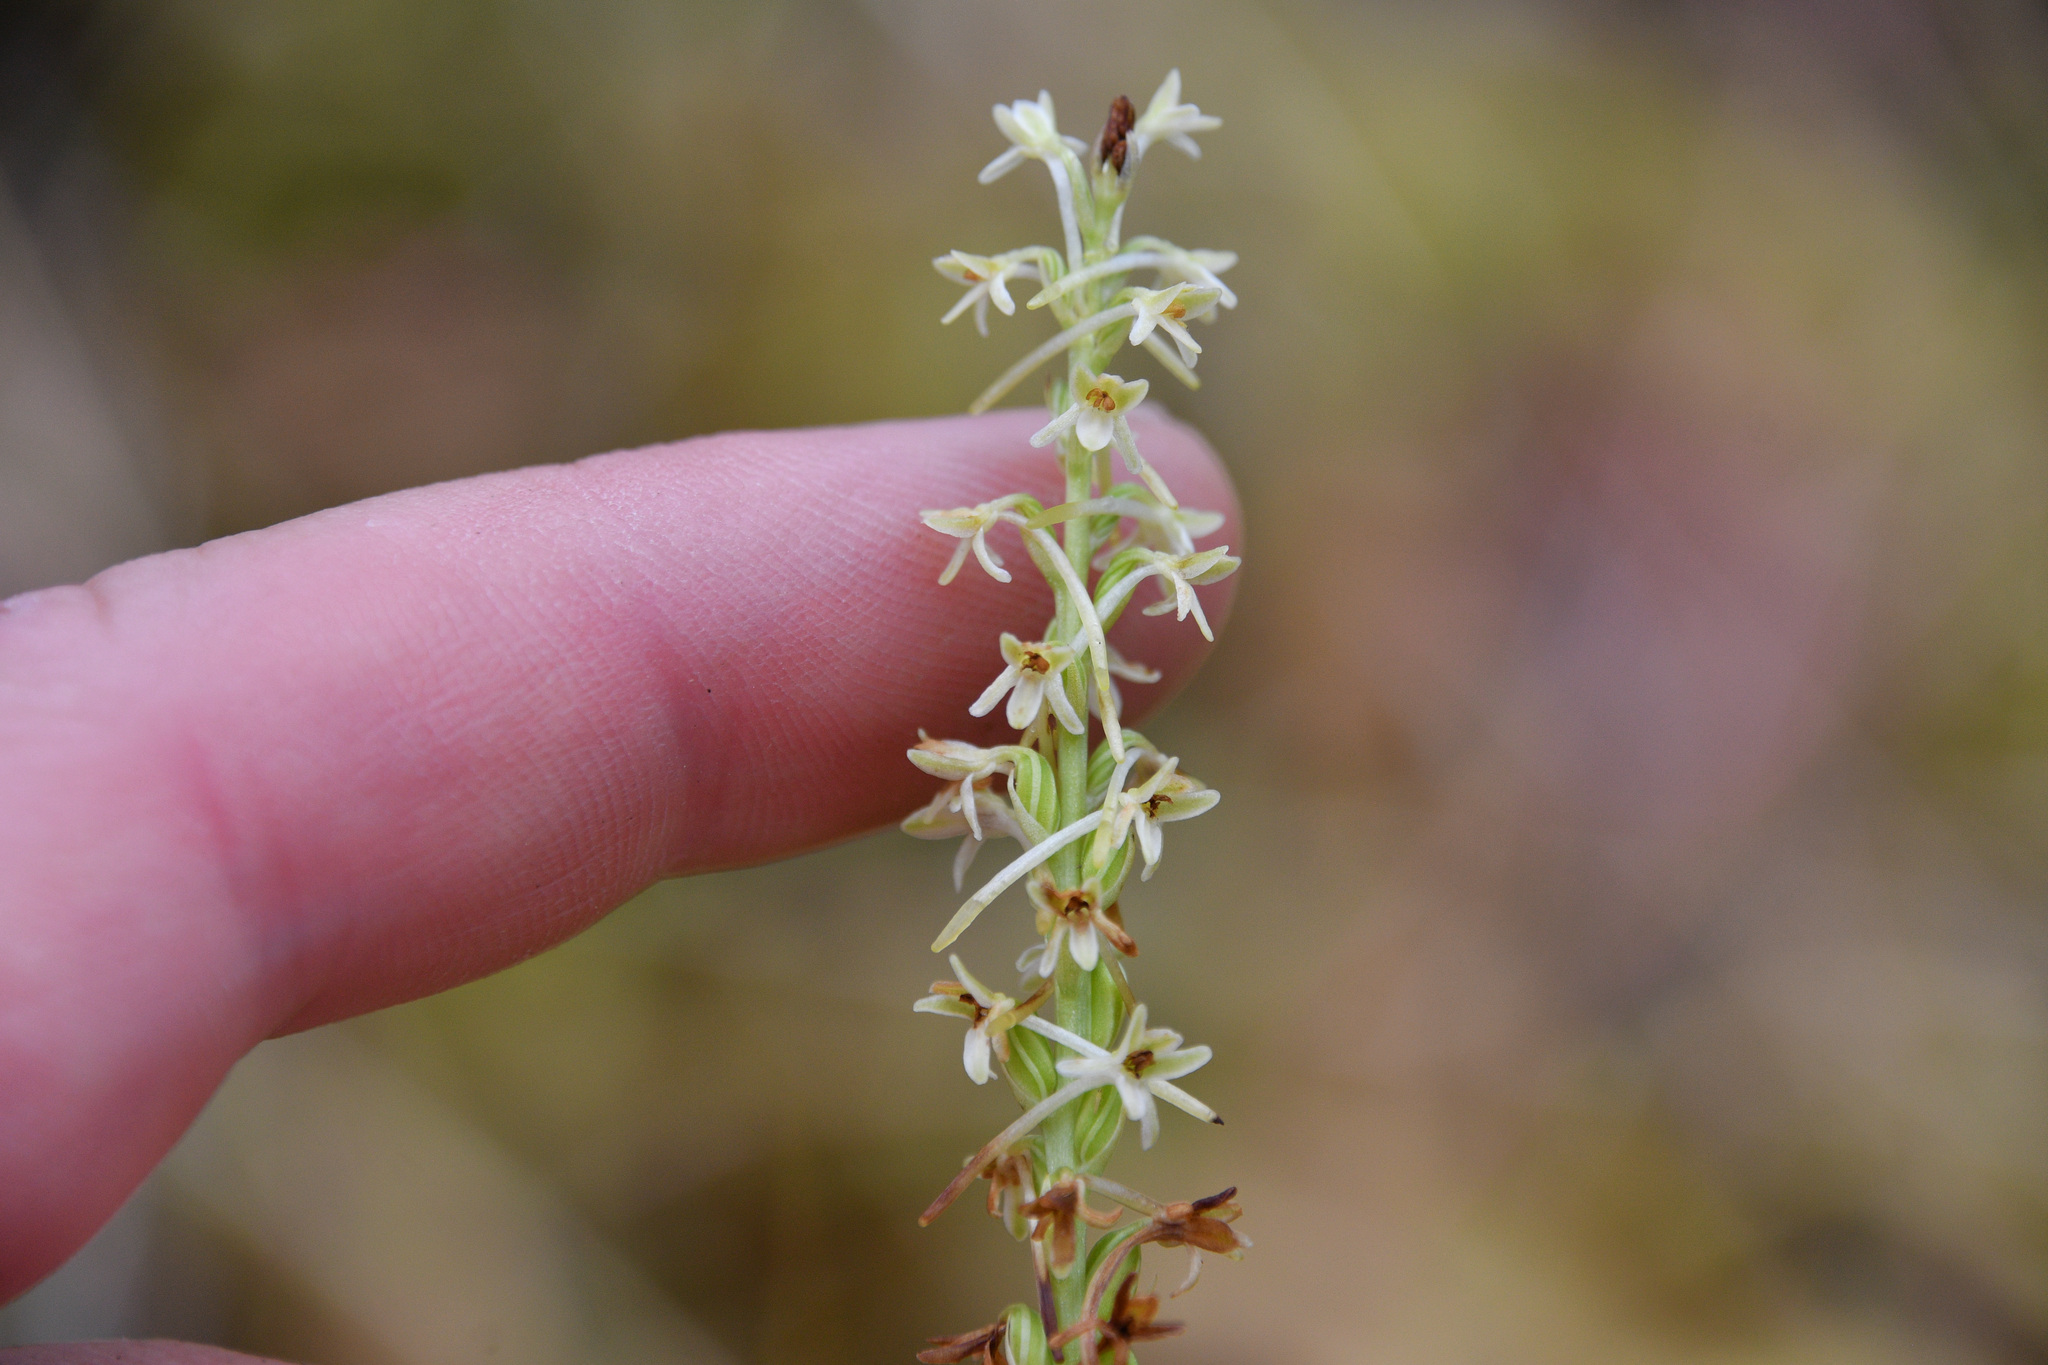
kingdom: Plantae
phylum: Tracheophyta
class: Liliopsida
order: Asparagales
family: Orchidaceae
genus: Platanthera
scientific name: Platanthera transversa
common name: Royal rein orchid
